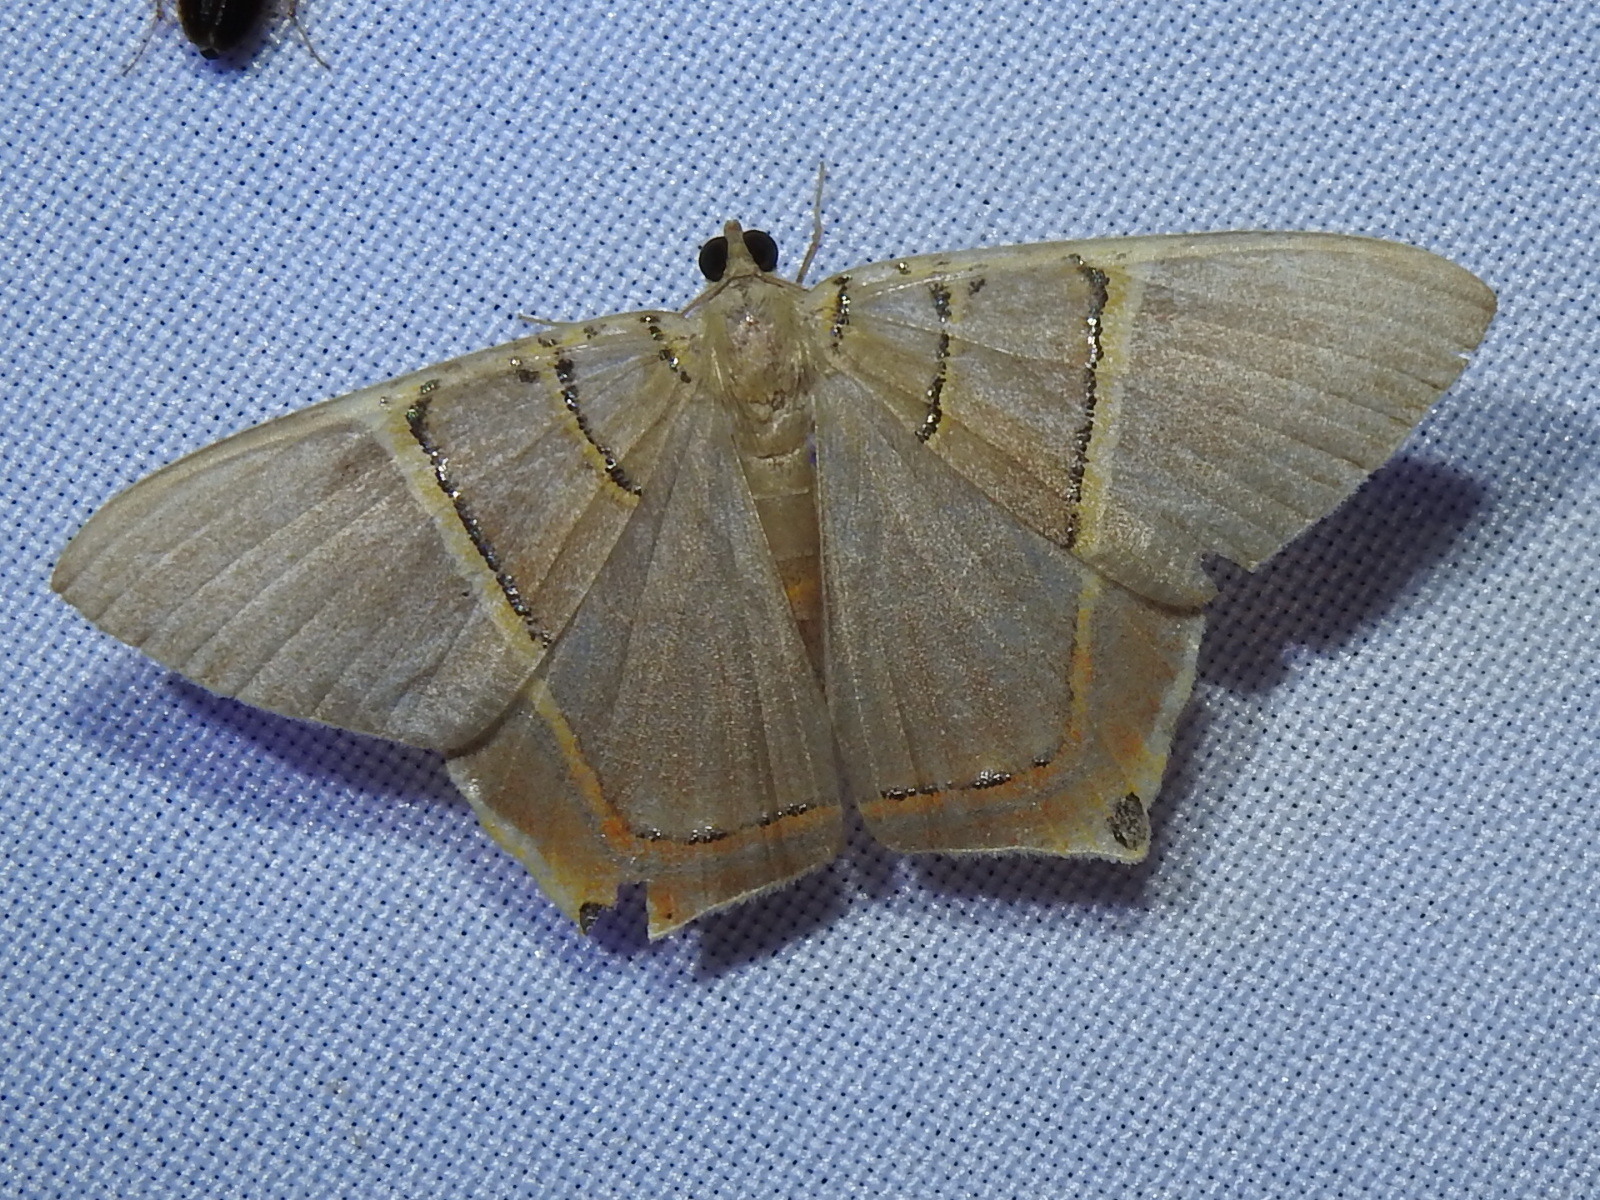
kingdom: Animalia
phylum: Arthropoda
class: Insecta
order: Lepidoptera
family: Geometridae
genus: Phrygionis
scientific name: Phrygionis polita
